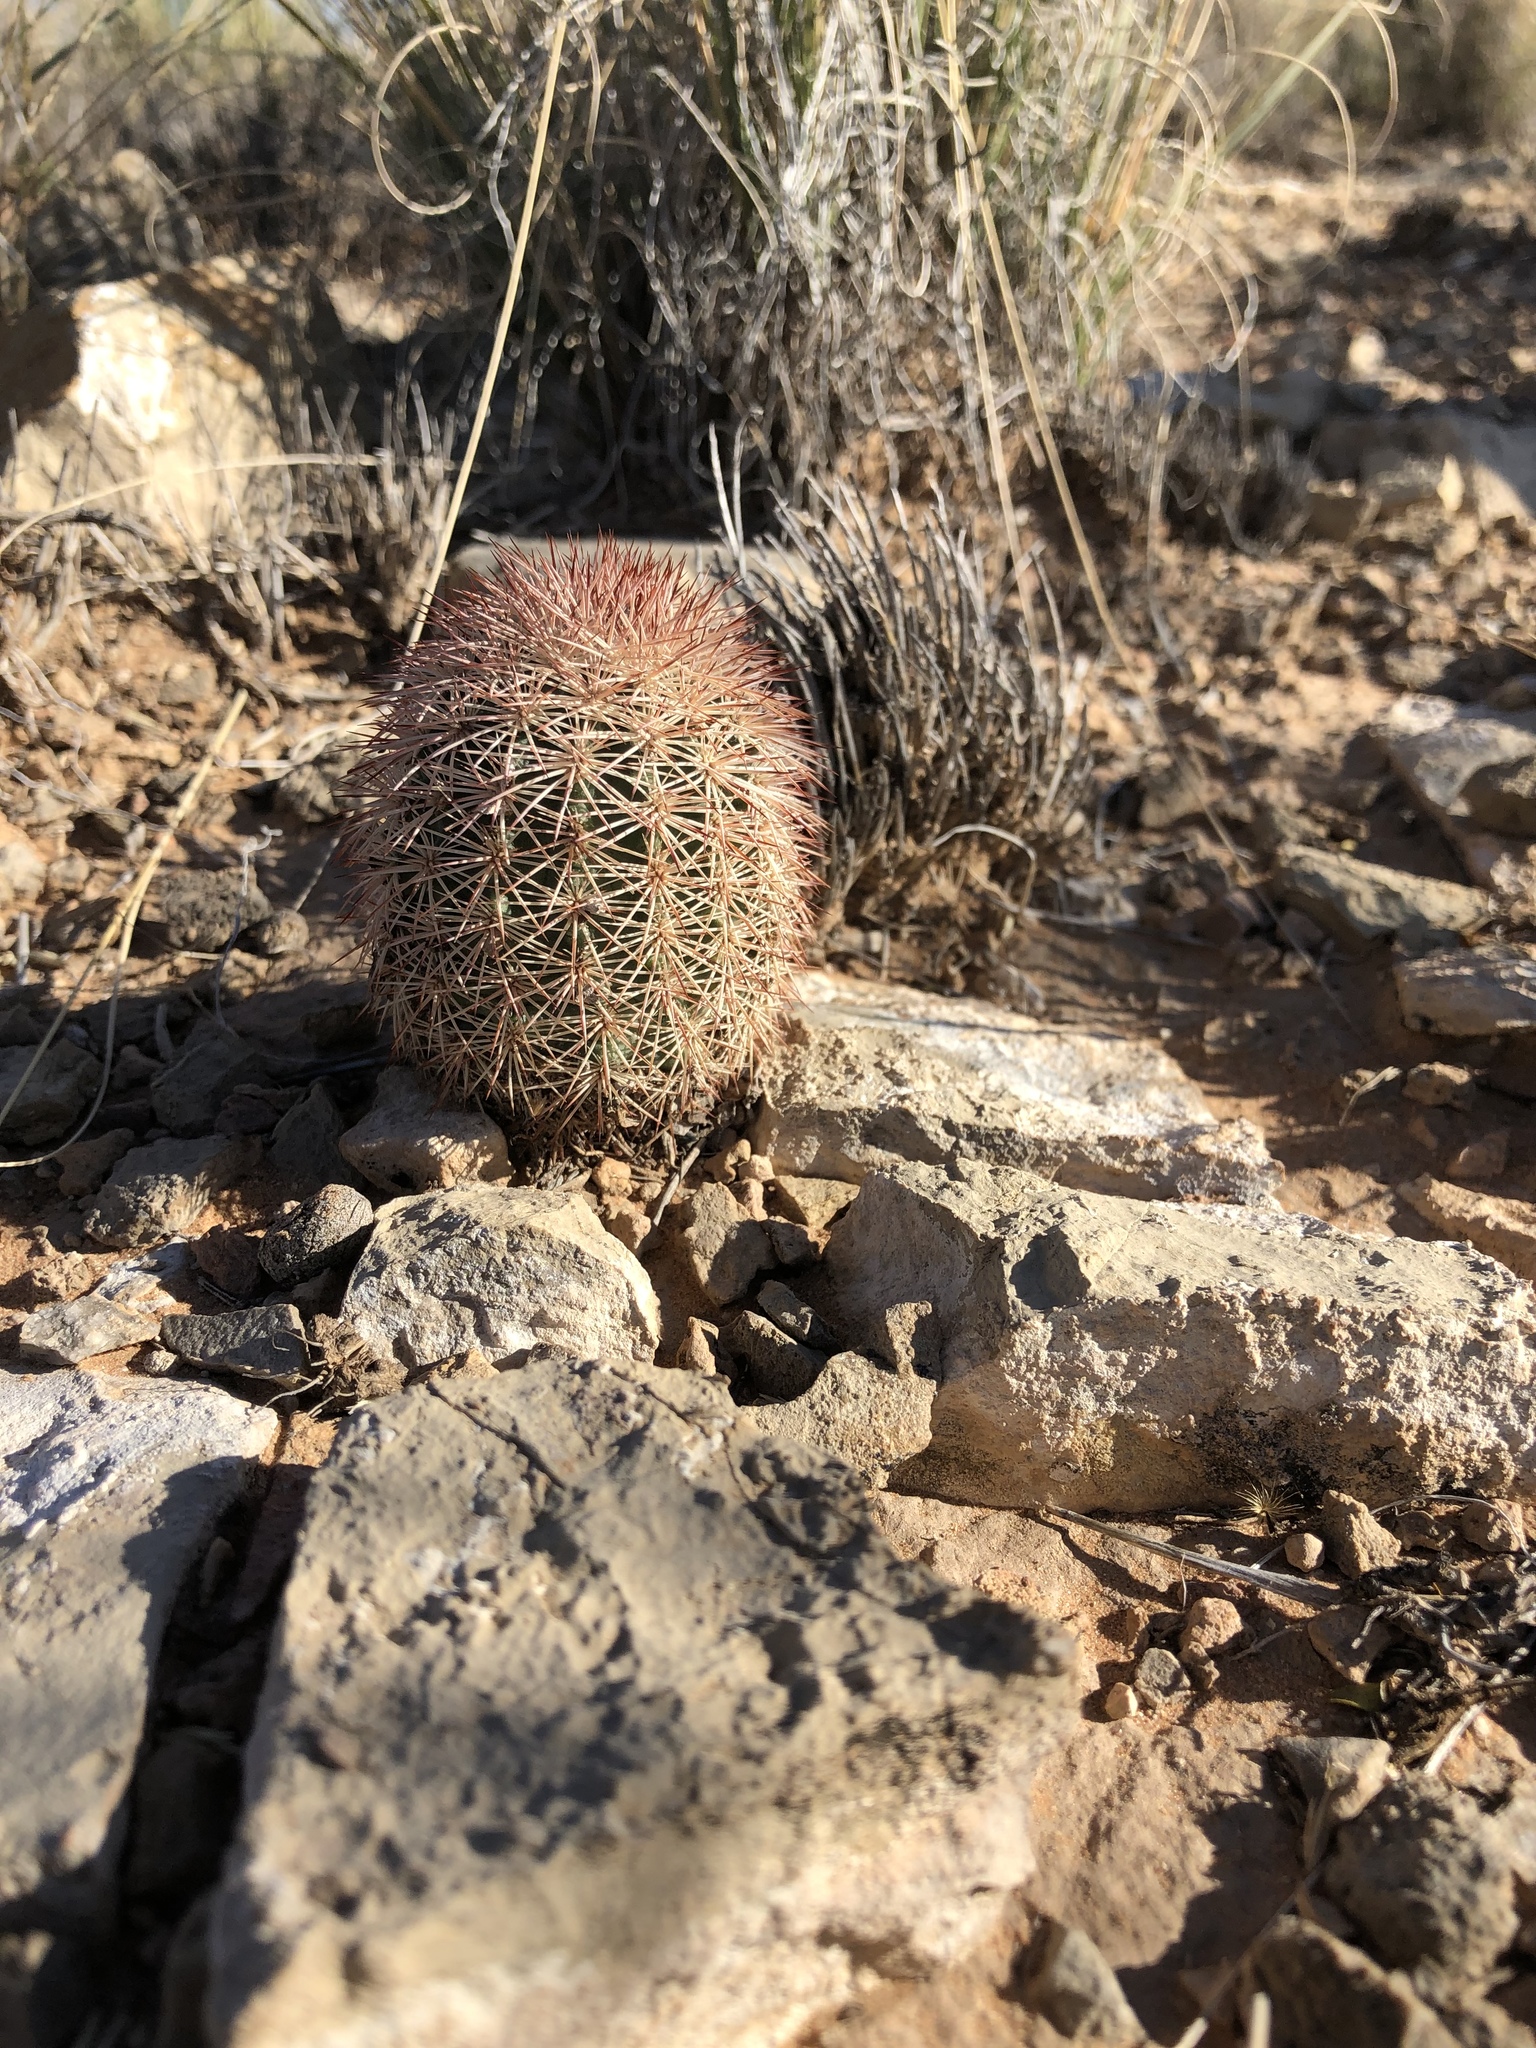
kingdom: Plantae
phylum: Tracheophyta
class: Magnoliopsida
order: Caryophyllales
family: Cactaceae
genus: Echinocereus
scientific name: Echinocereus dasyacanthus
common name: Spiny hedgehog cactus
